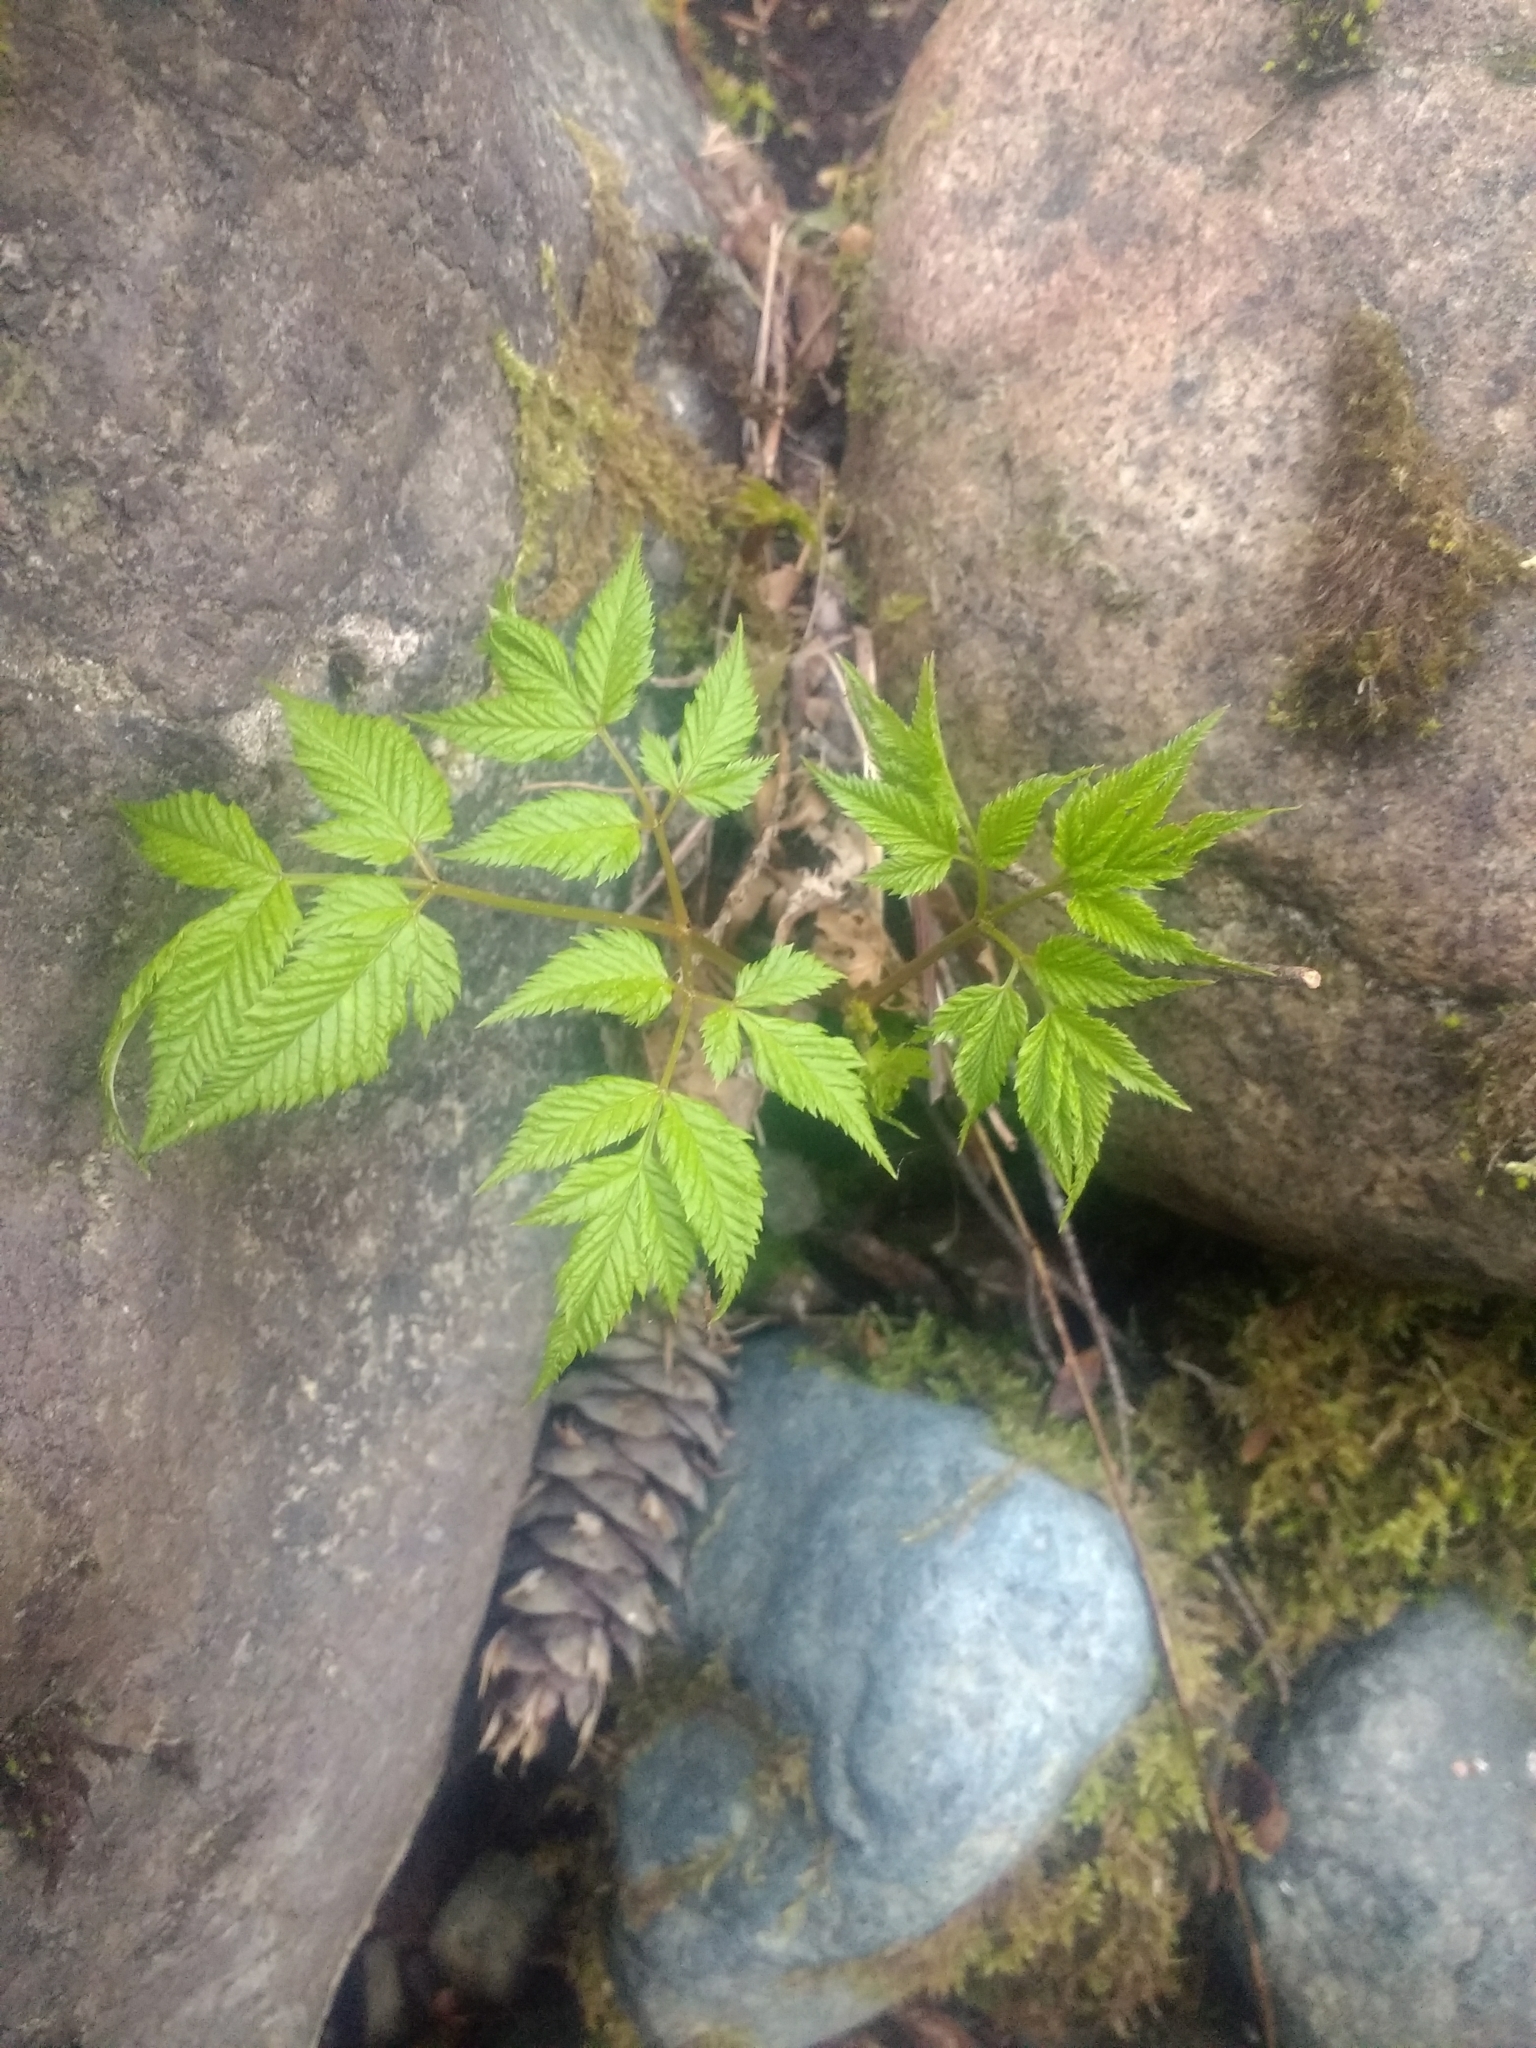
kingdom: Plantae
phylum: Tracheophyta
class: Magnoliopsida
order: Rosales
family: Rosaceae
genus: Aruncus
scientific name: Aruncus dioicus
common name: Buck's-beard
